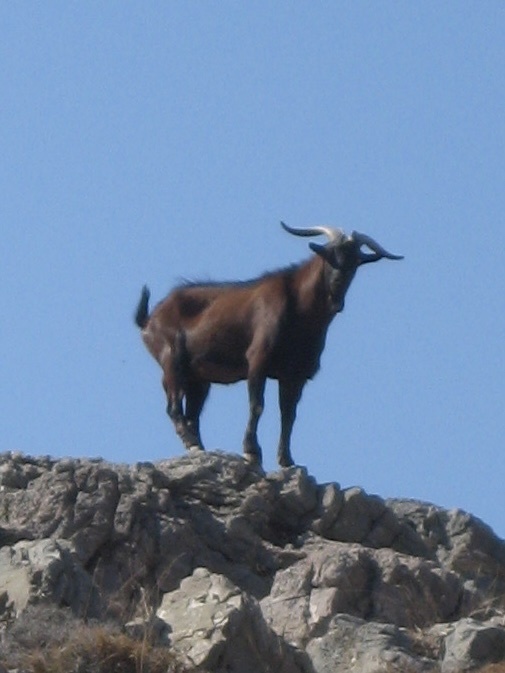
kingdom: Animalia
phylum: Chordata
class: Mammalia
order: Artiodactyla
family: Bovidae
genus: Capra
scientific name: Capra hircus
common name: Domestic goat
